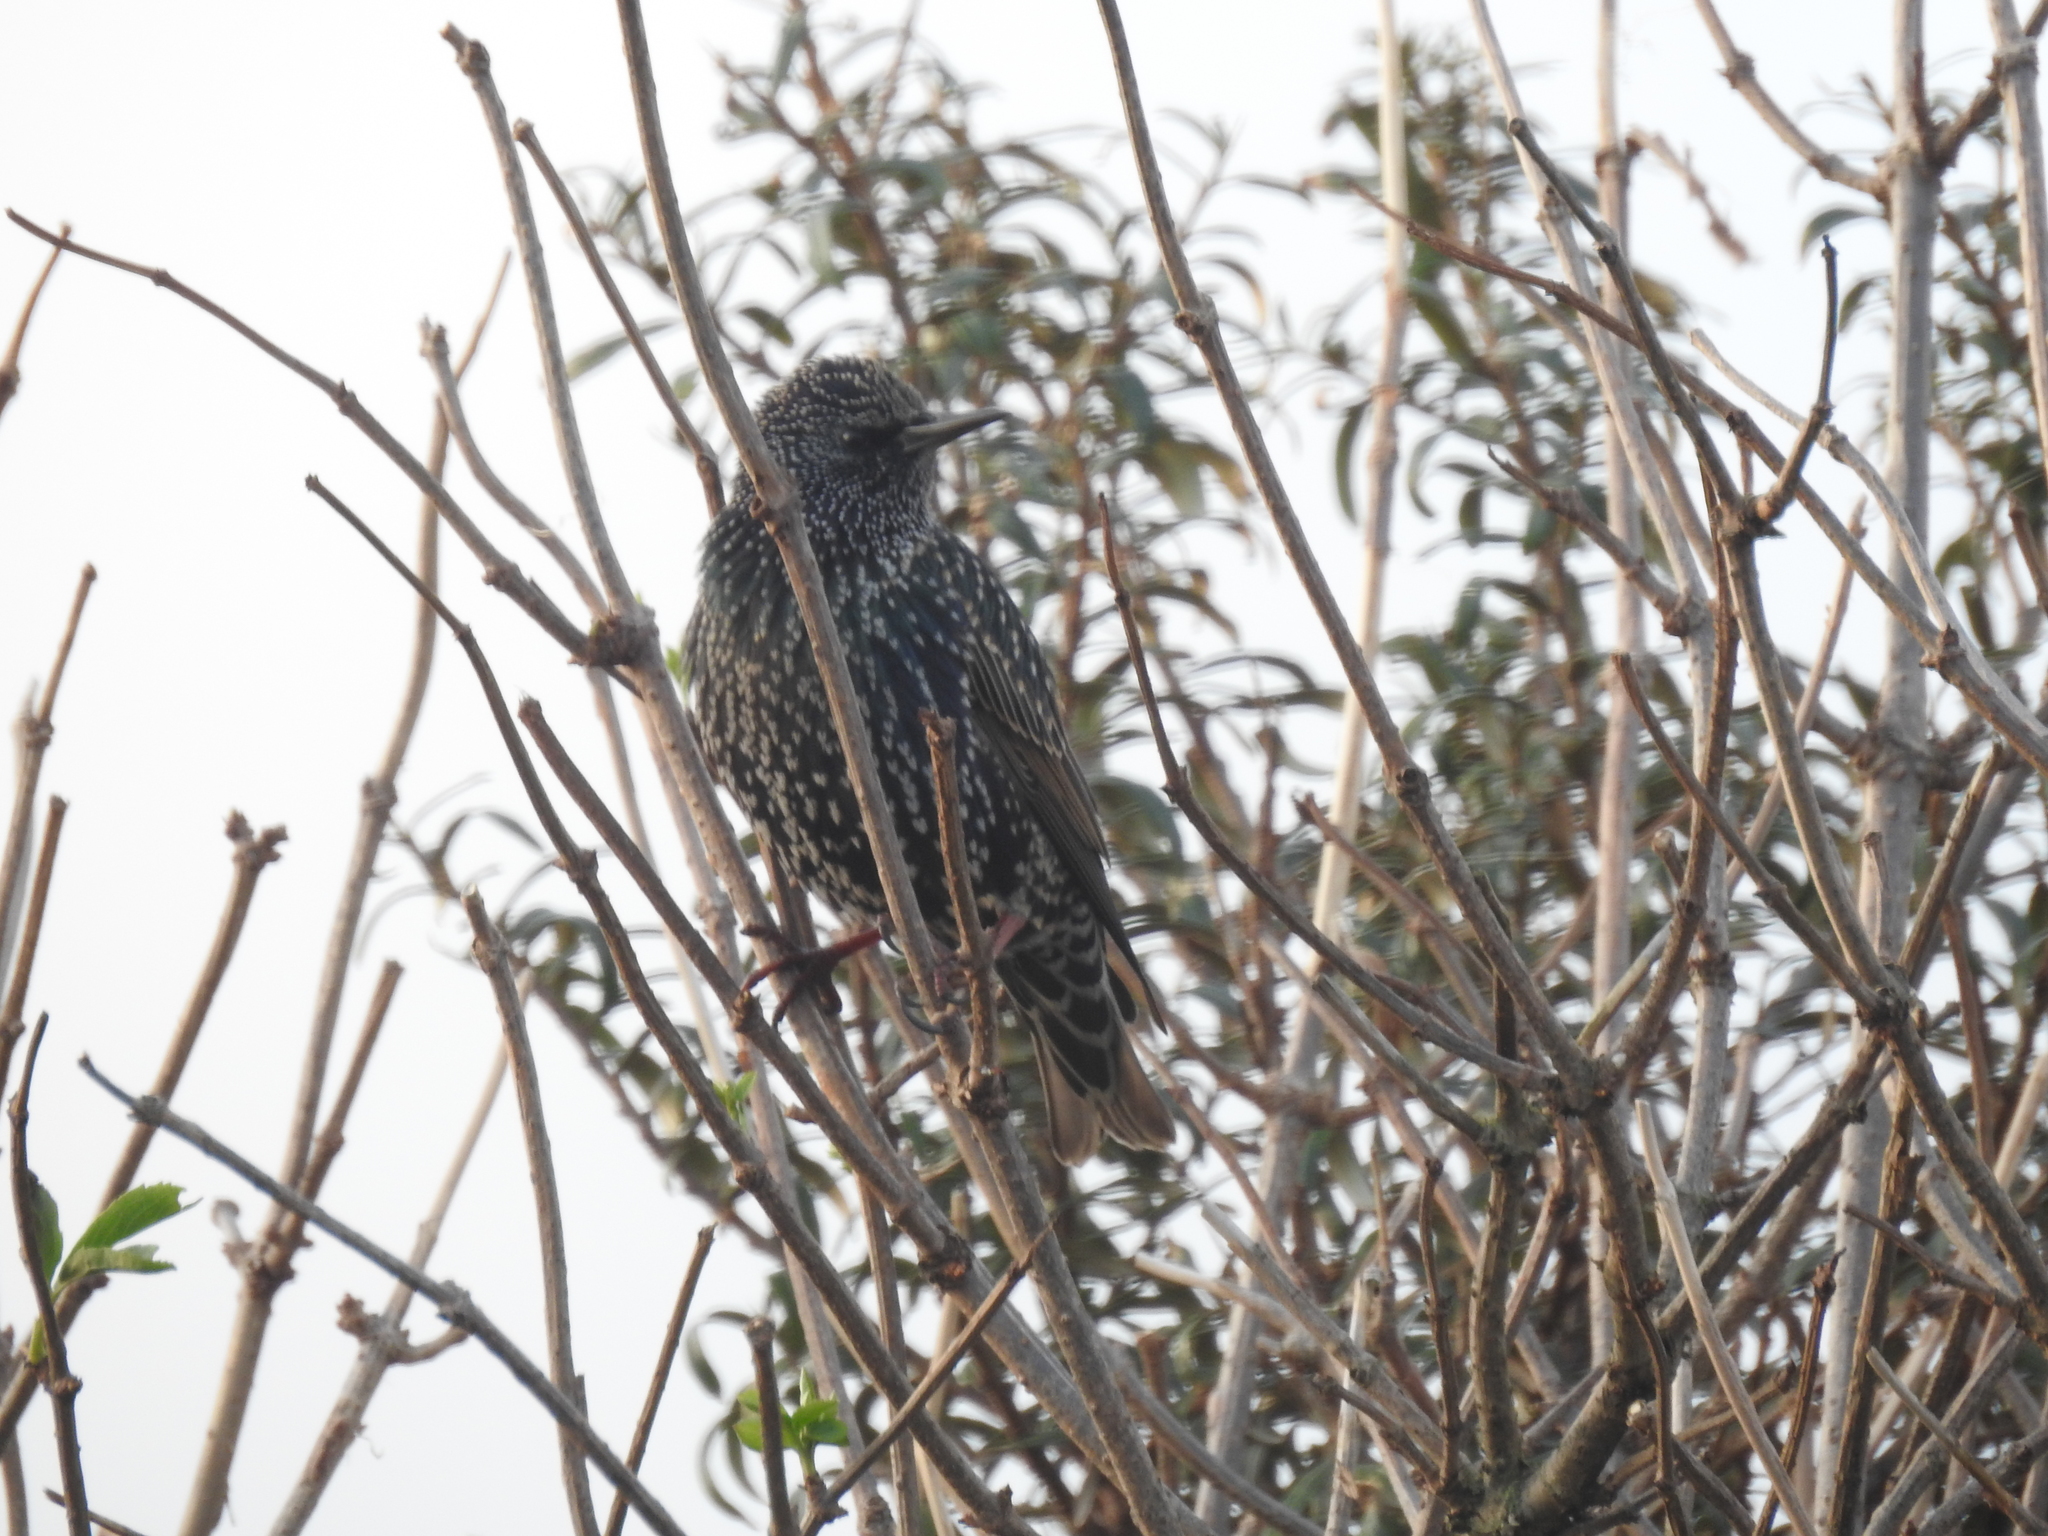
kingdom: Animalia
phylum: Chordata
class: Aves
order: Passeriformes
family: Sturnidae
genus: Sturnus
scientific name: Sturnus vulgaris
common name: Common starling
